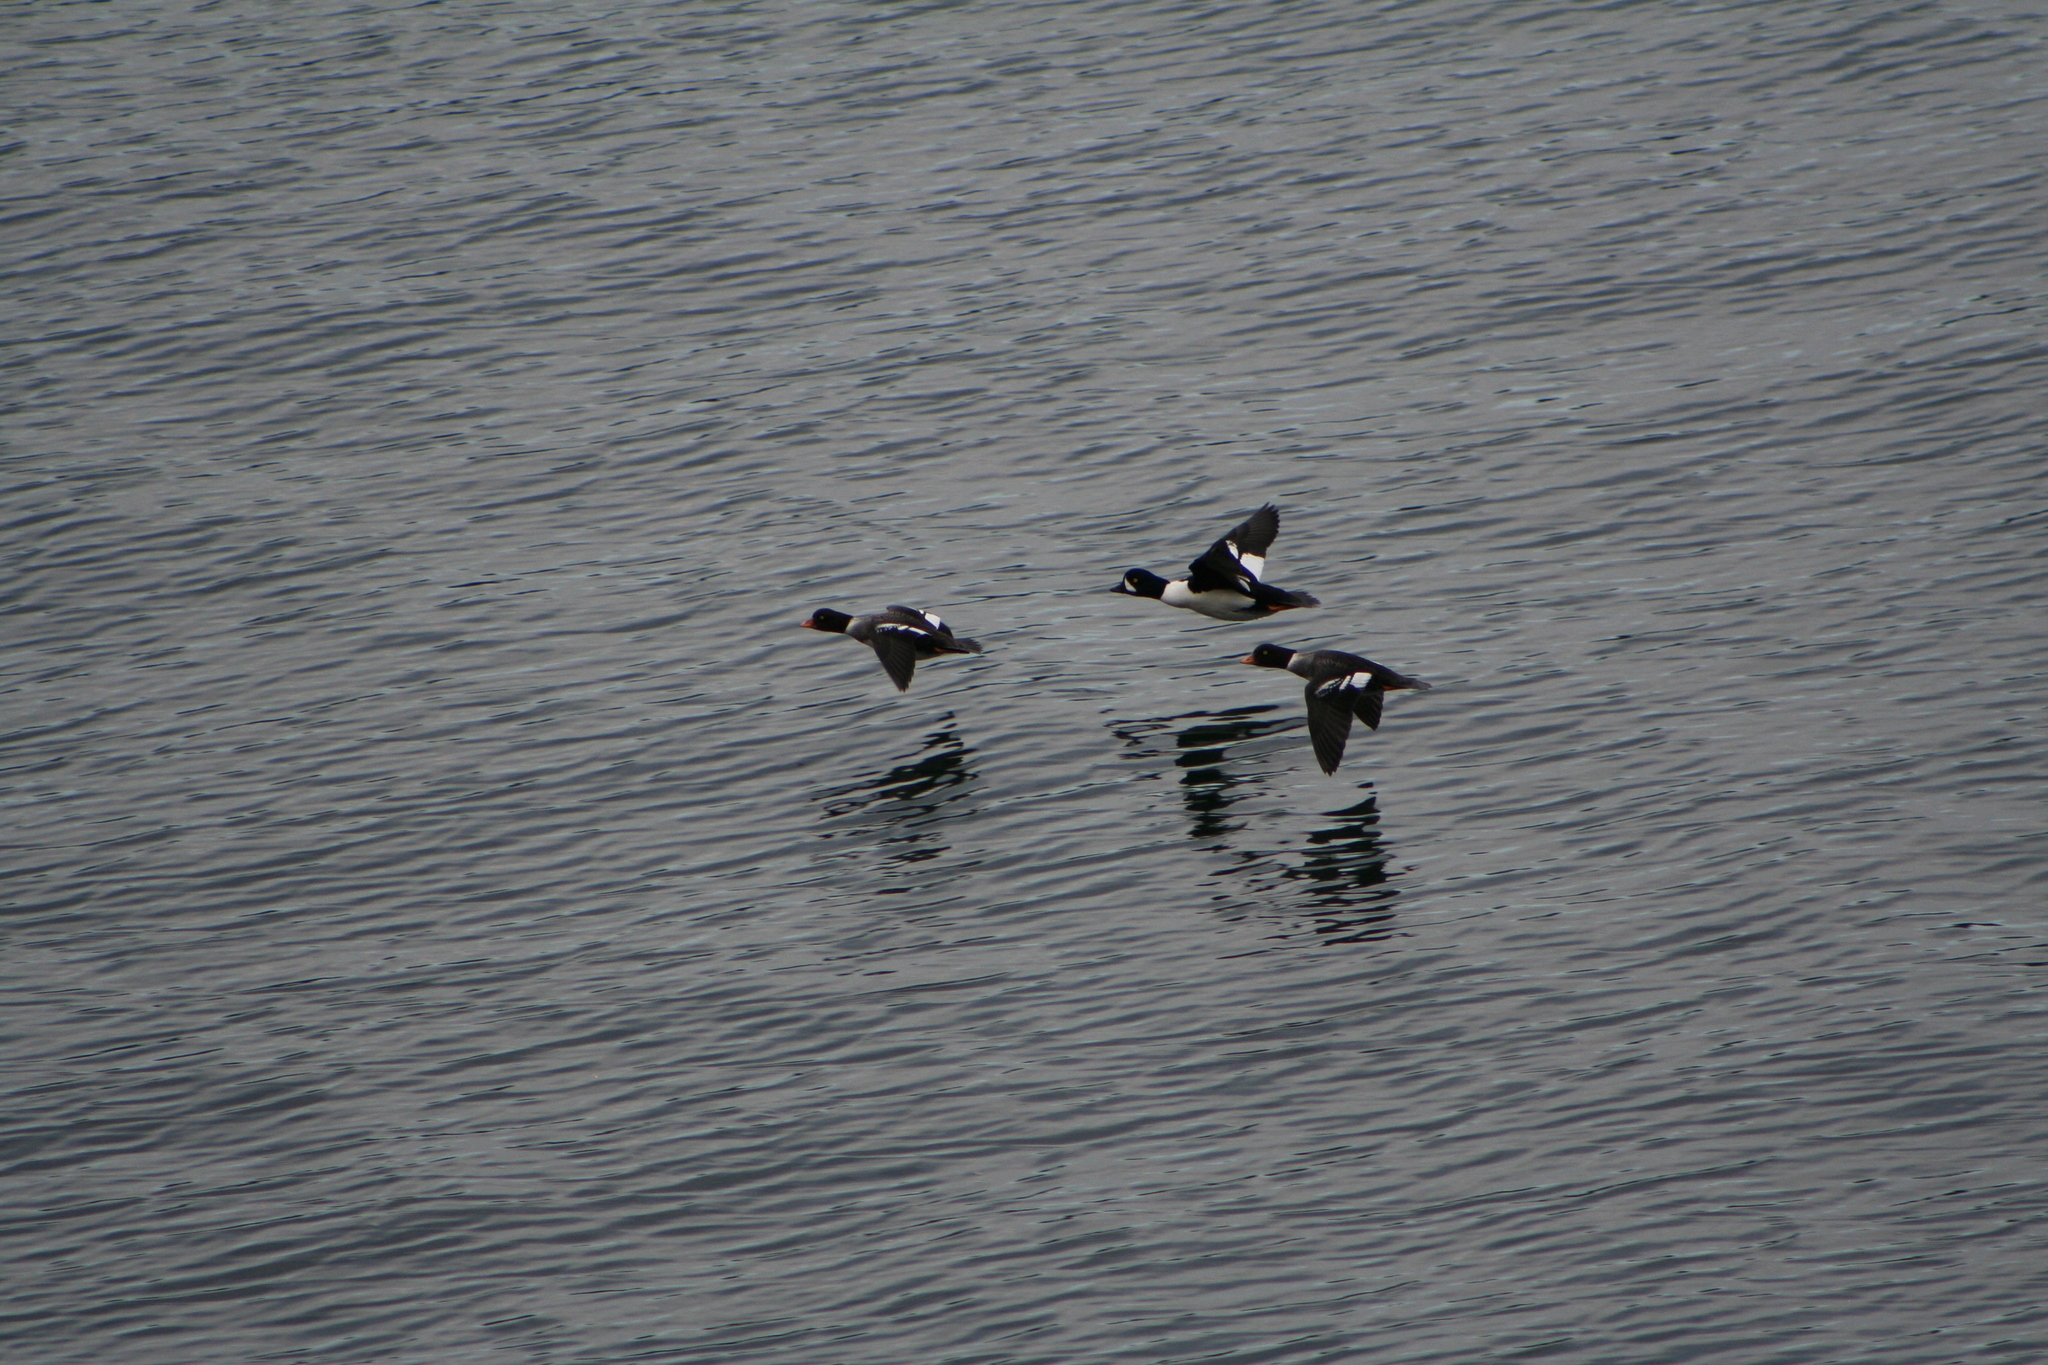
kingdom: Animalia
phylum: Chordata
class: Aves
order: Anseriformes
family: Anatidae
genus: Bucephala
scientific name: Bucephala islandica
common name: Barrow's goldeneye
